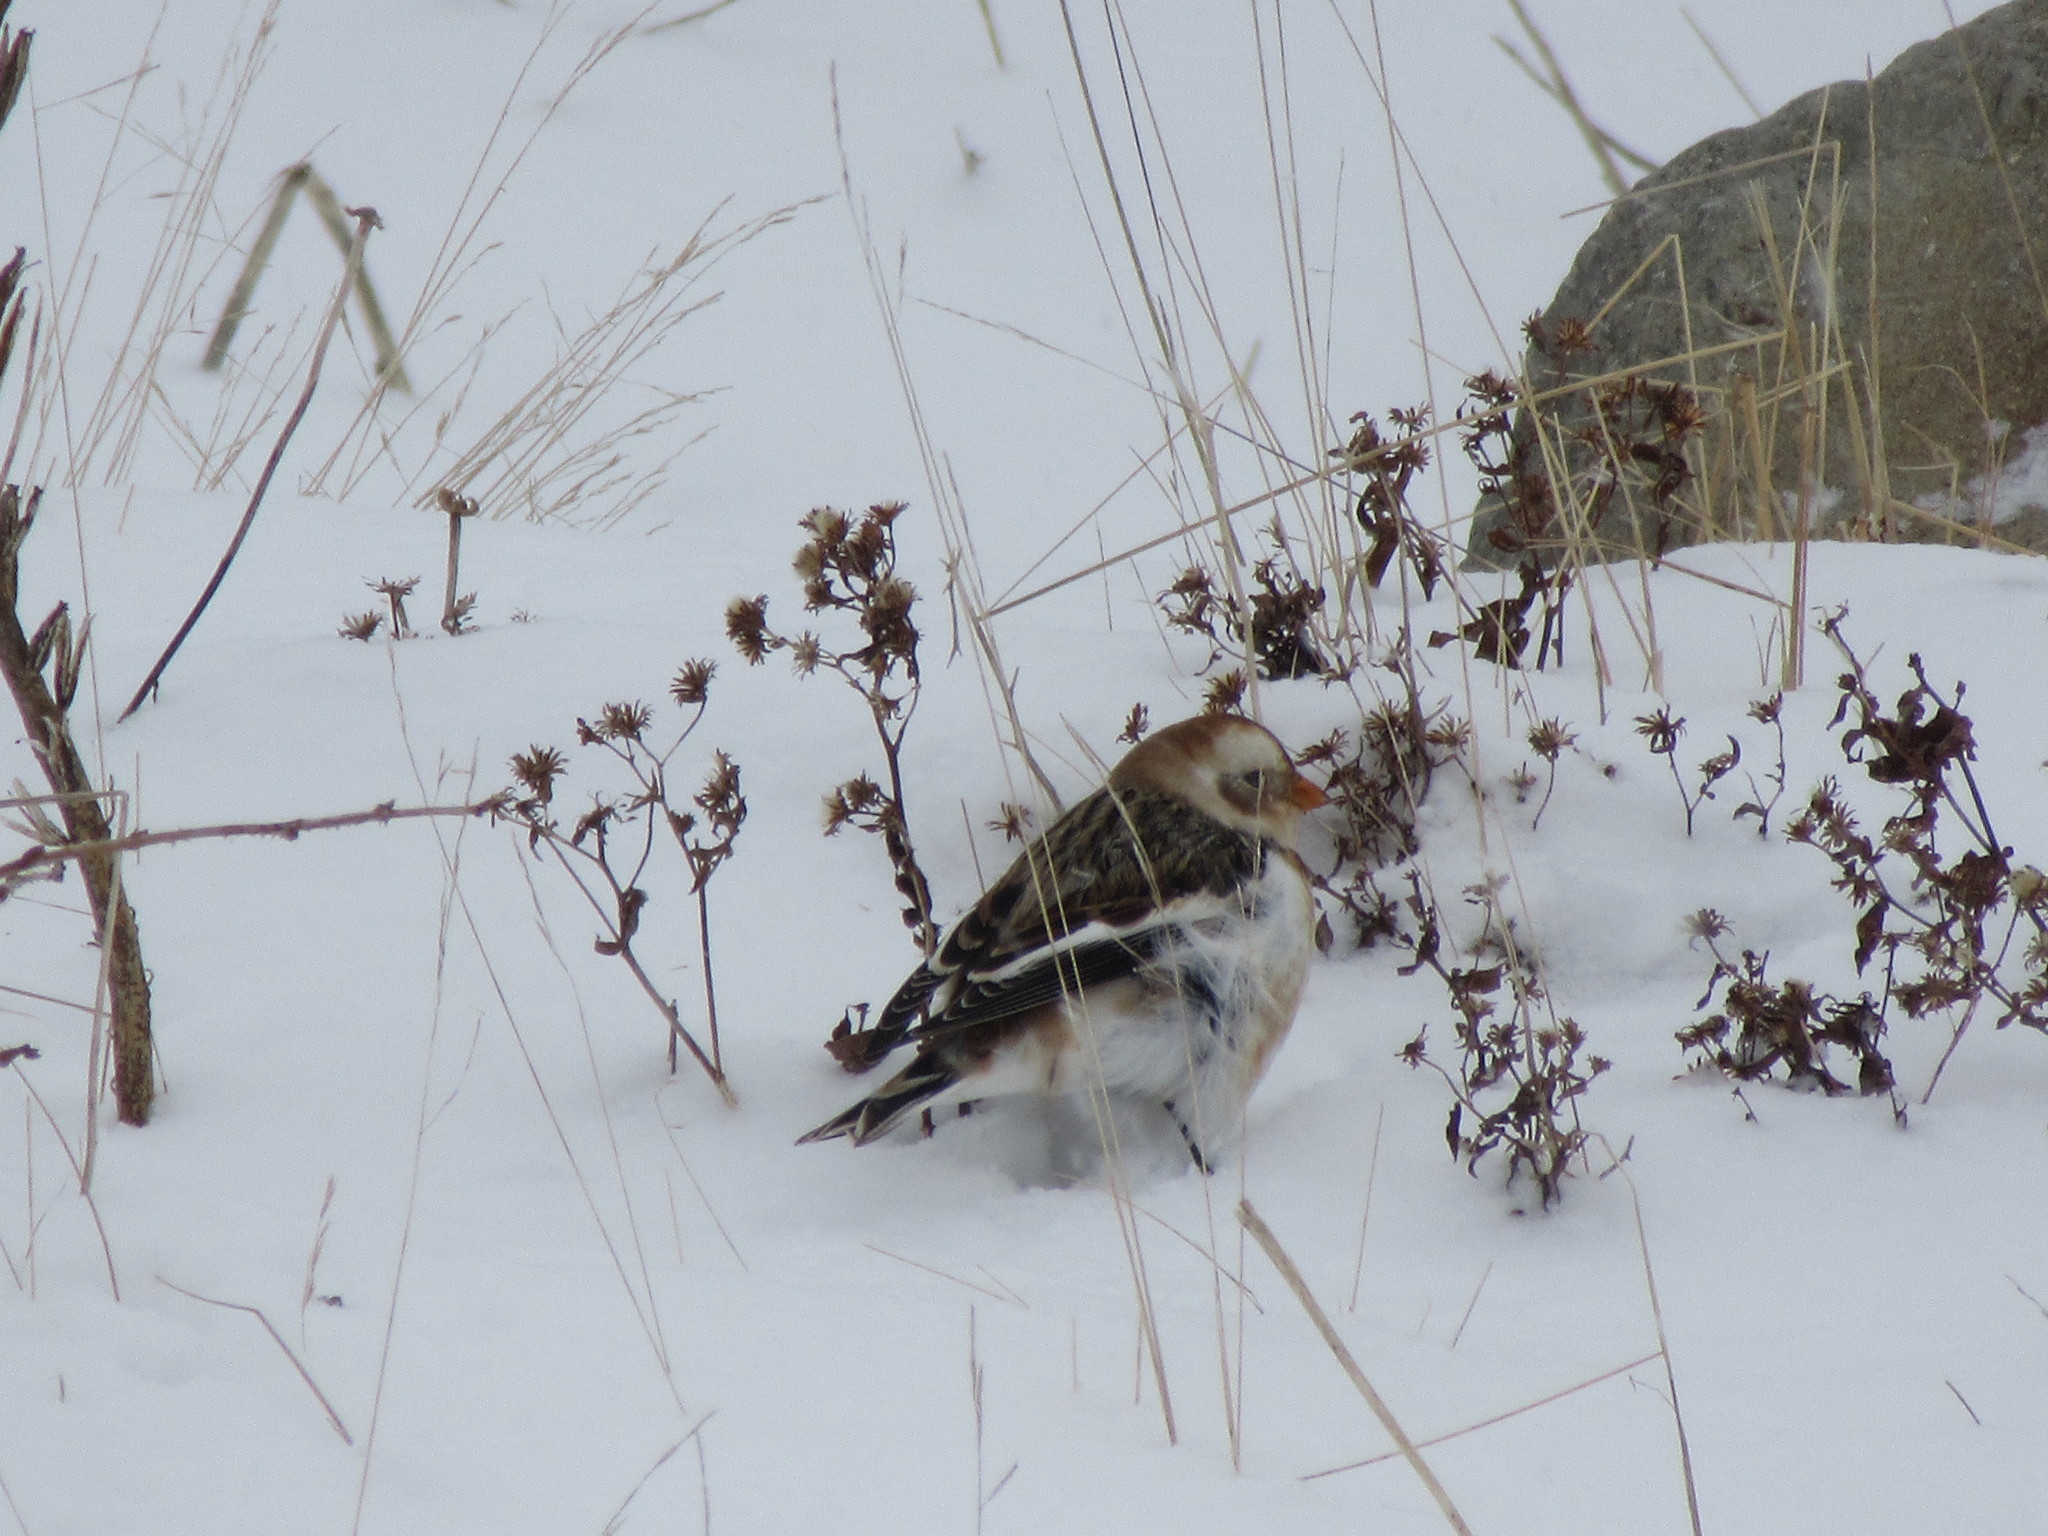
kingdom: Animalia
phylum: Chordata
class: Aves
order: Passeriformes
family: Calcariidae
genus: Plectrophenax
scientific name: Plectrophenax nivalis
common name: Snow bunting
